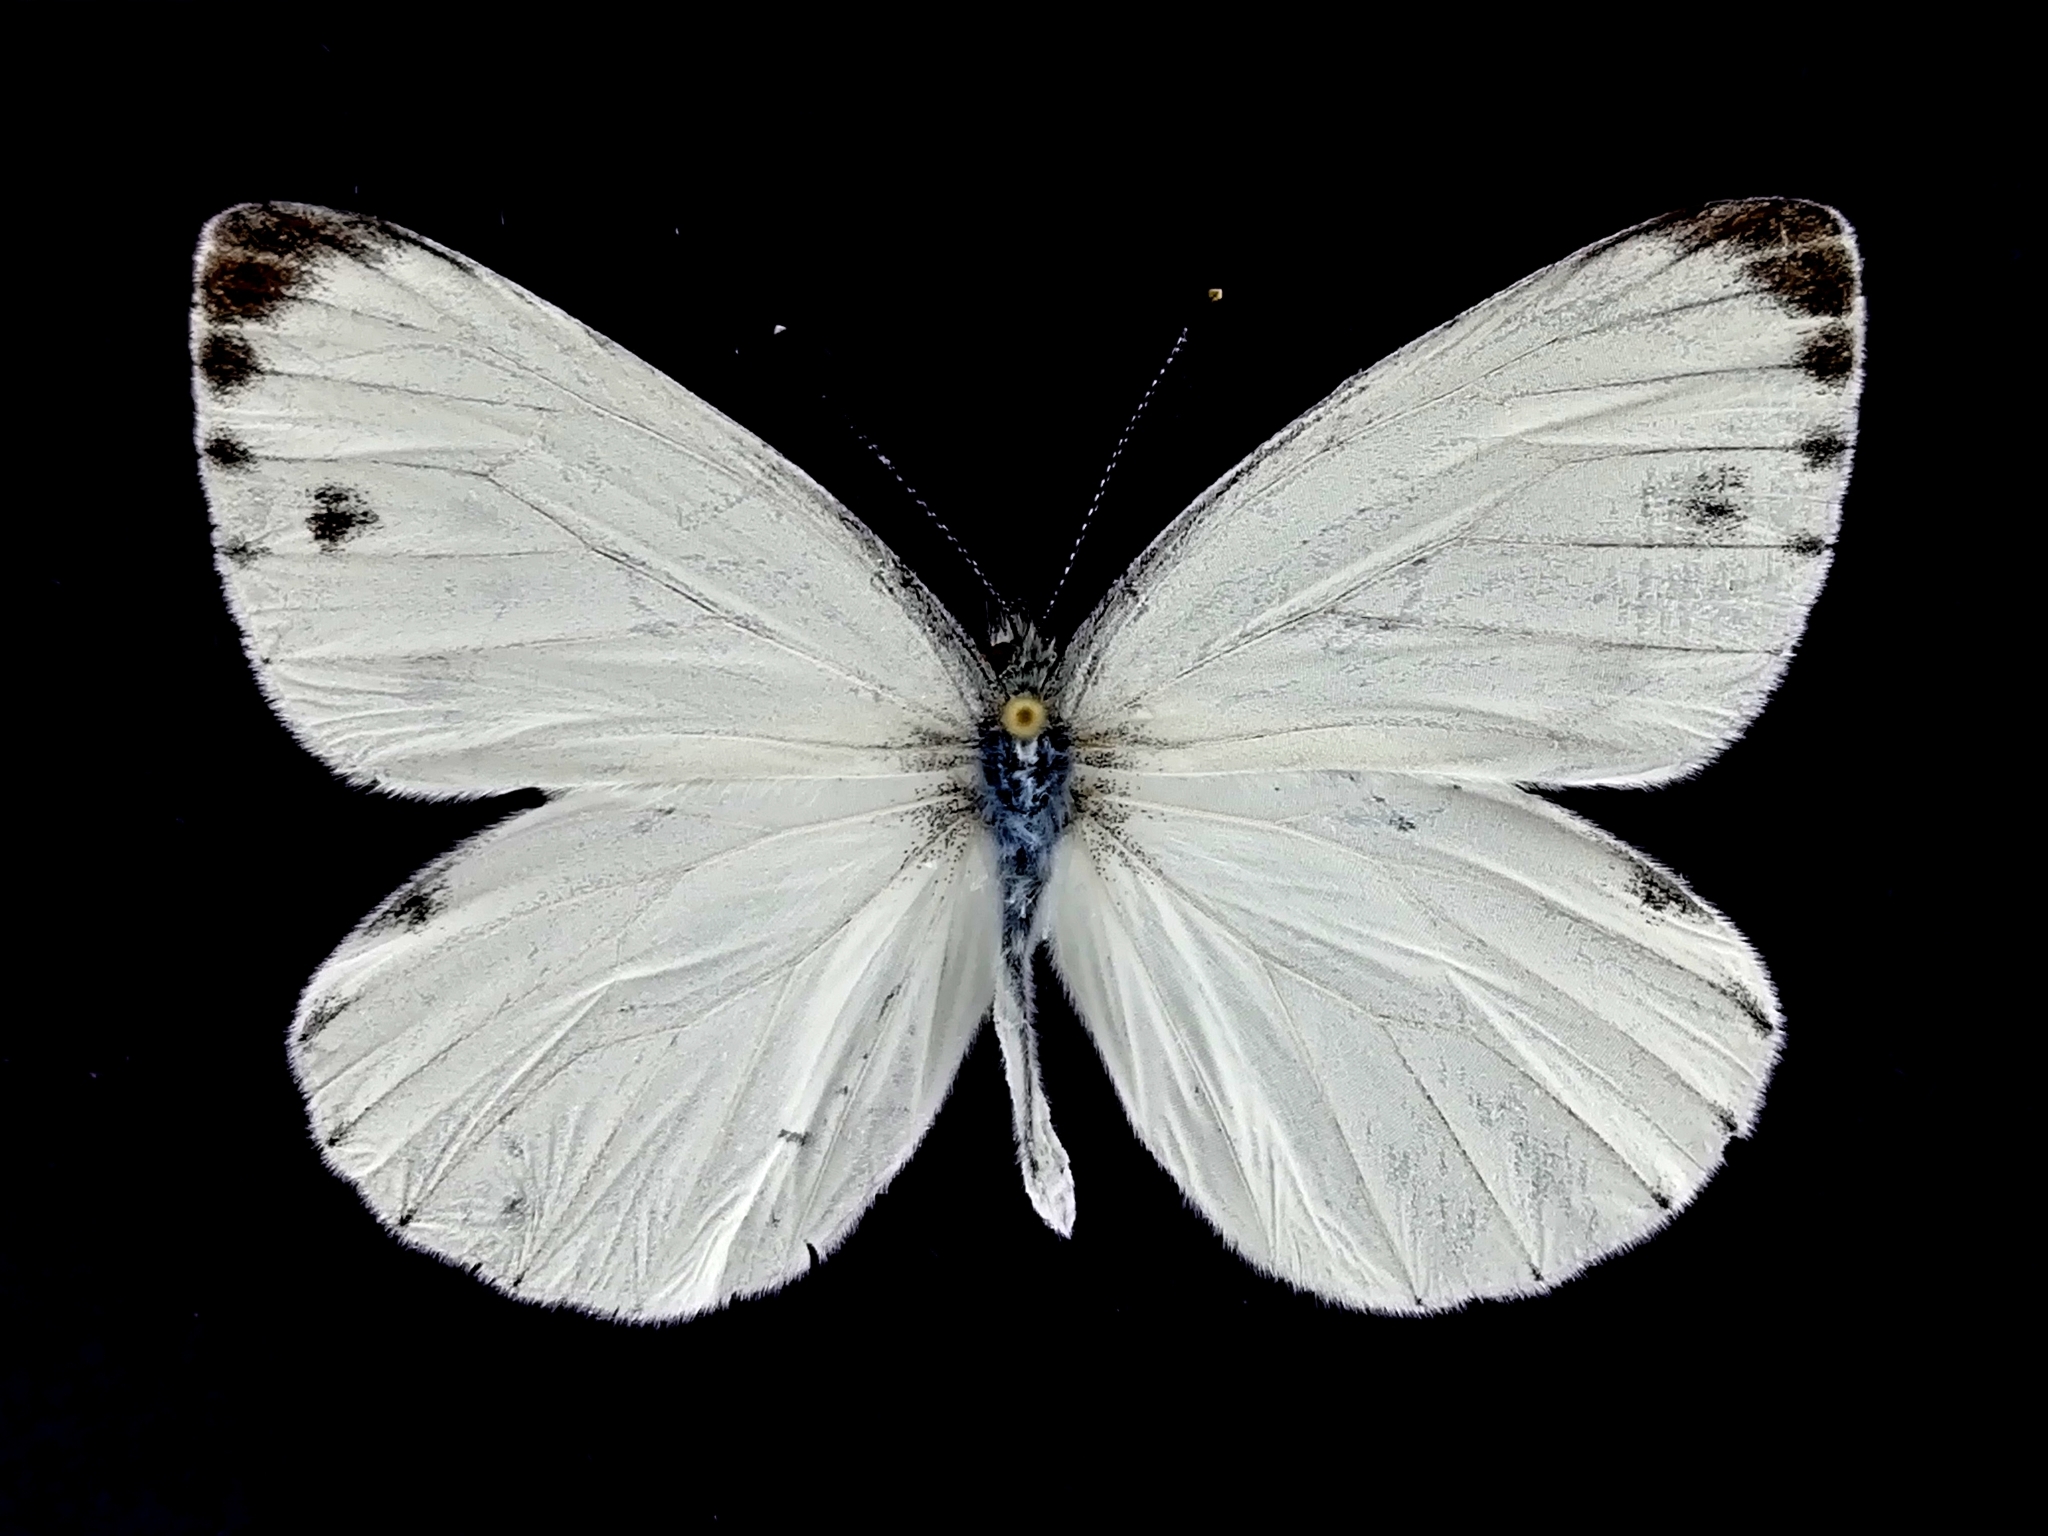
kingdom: Animalia
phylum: Arthropoda
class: Insecta
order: Lepidoptera
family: Pieridae
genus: Pieris
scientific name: Pieris melete
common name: Asian green-veined white
